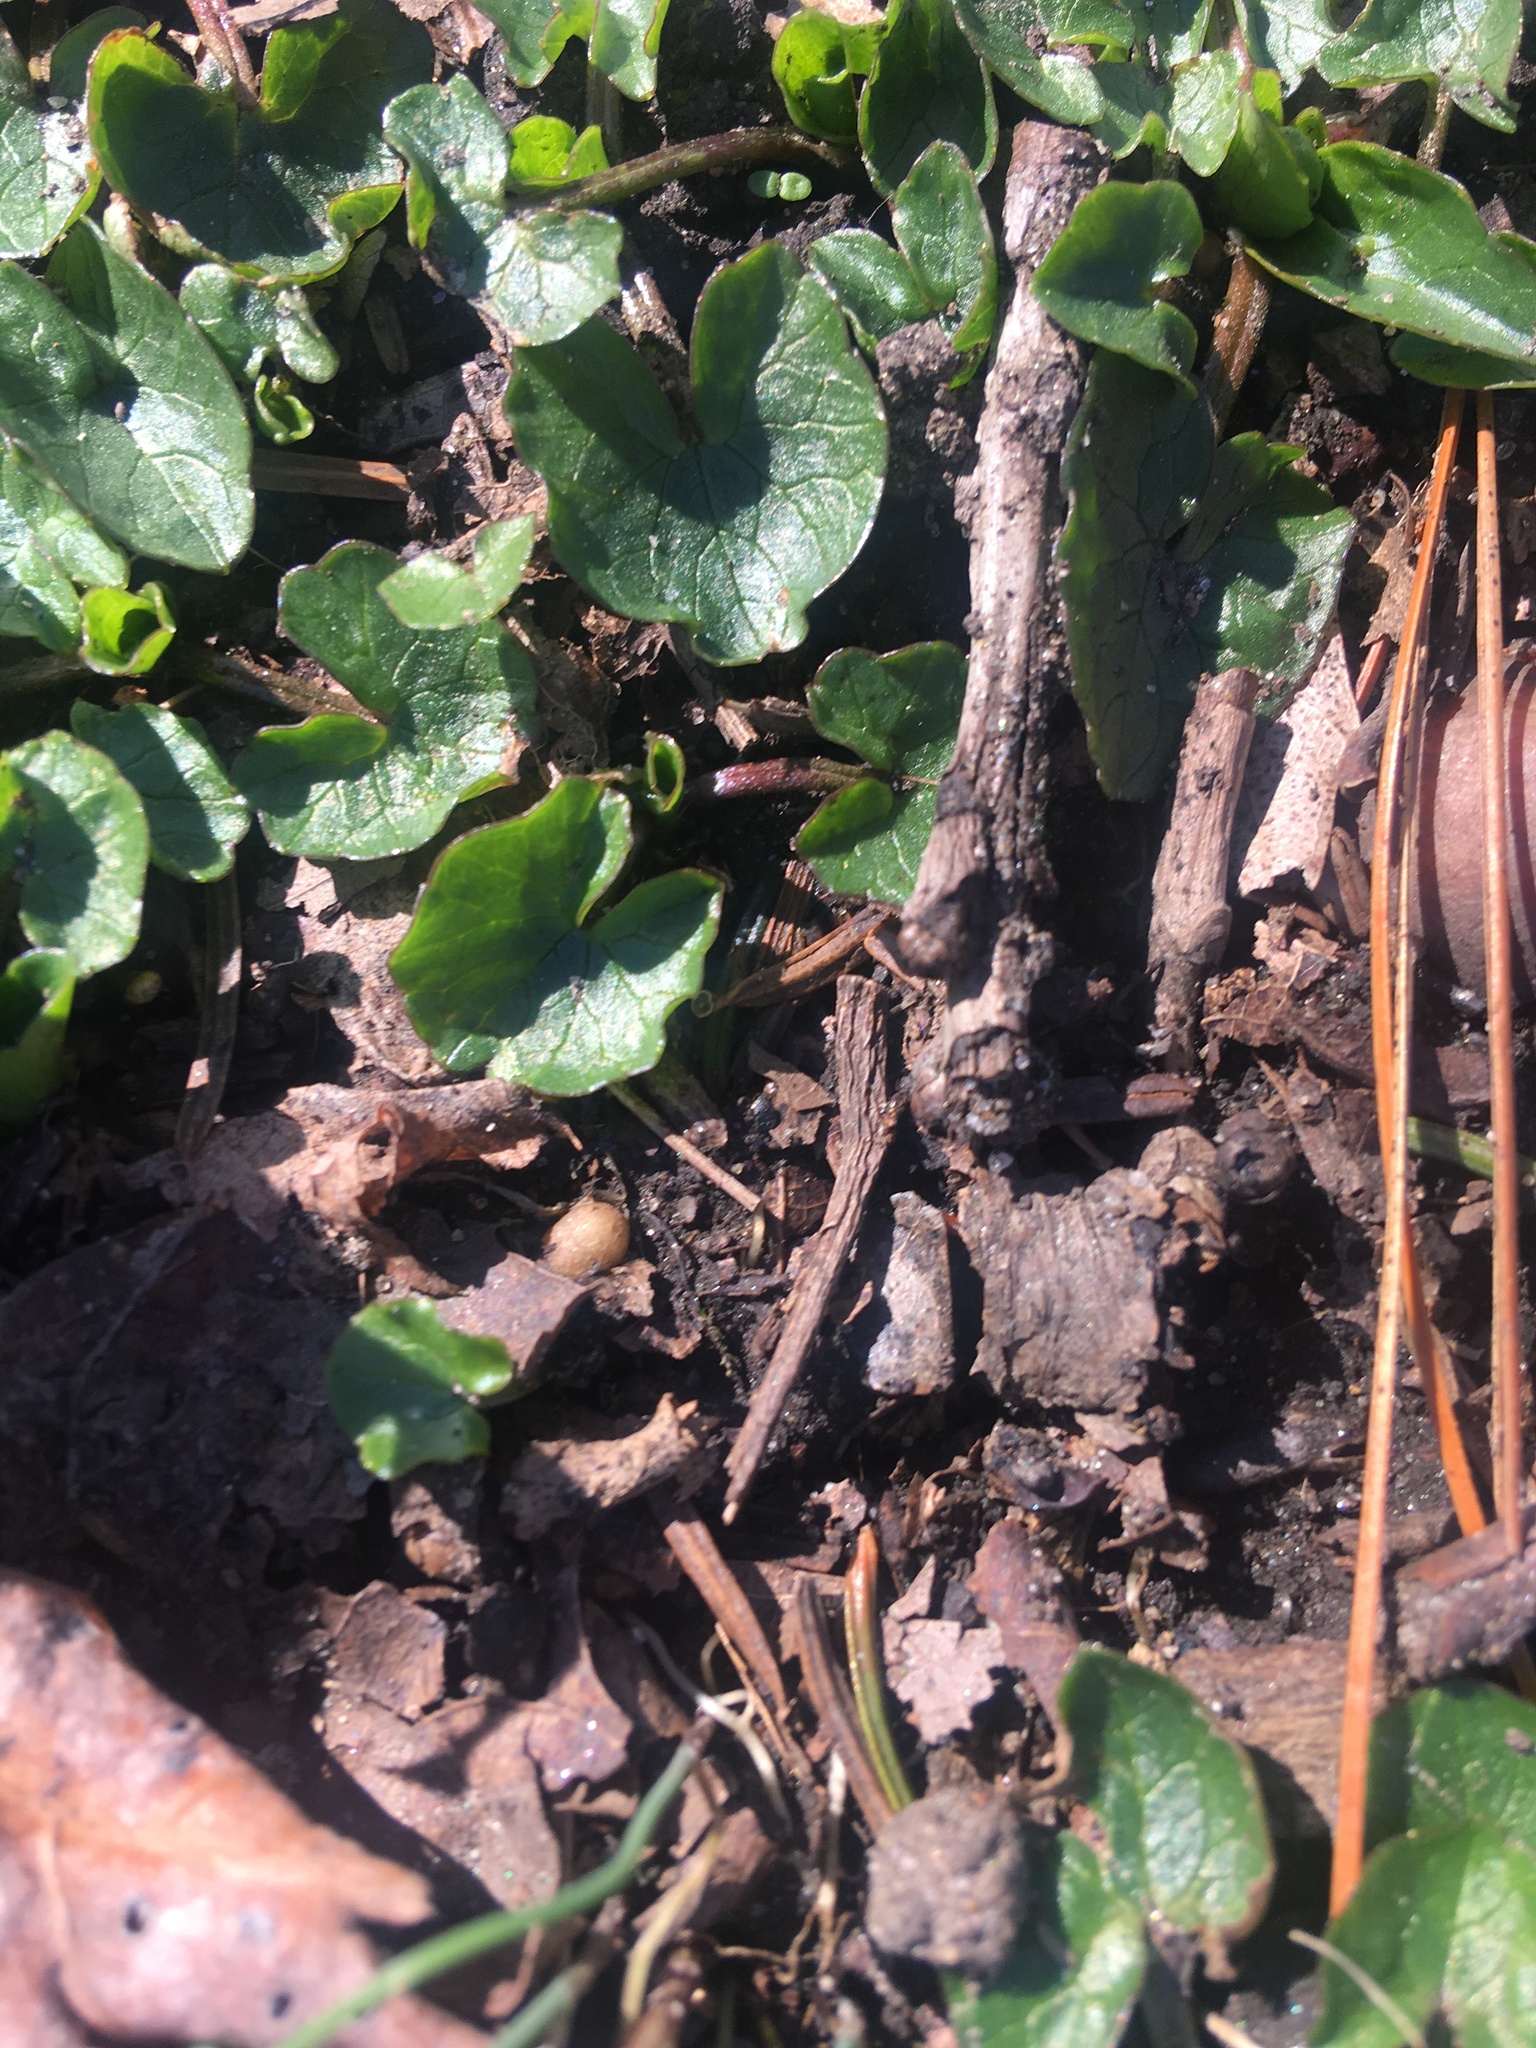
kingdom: Plantae
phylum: Tracheophyta
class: Magnoliopsida
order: Ranunculales
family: Ranunculaceae
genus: Ficaria
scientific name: Ficaria verna
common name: Lesser celandine
